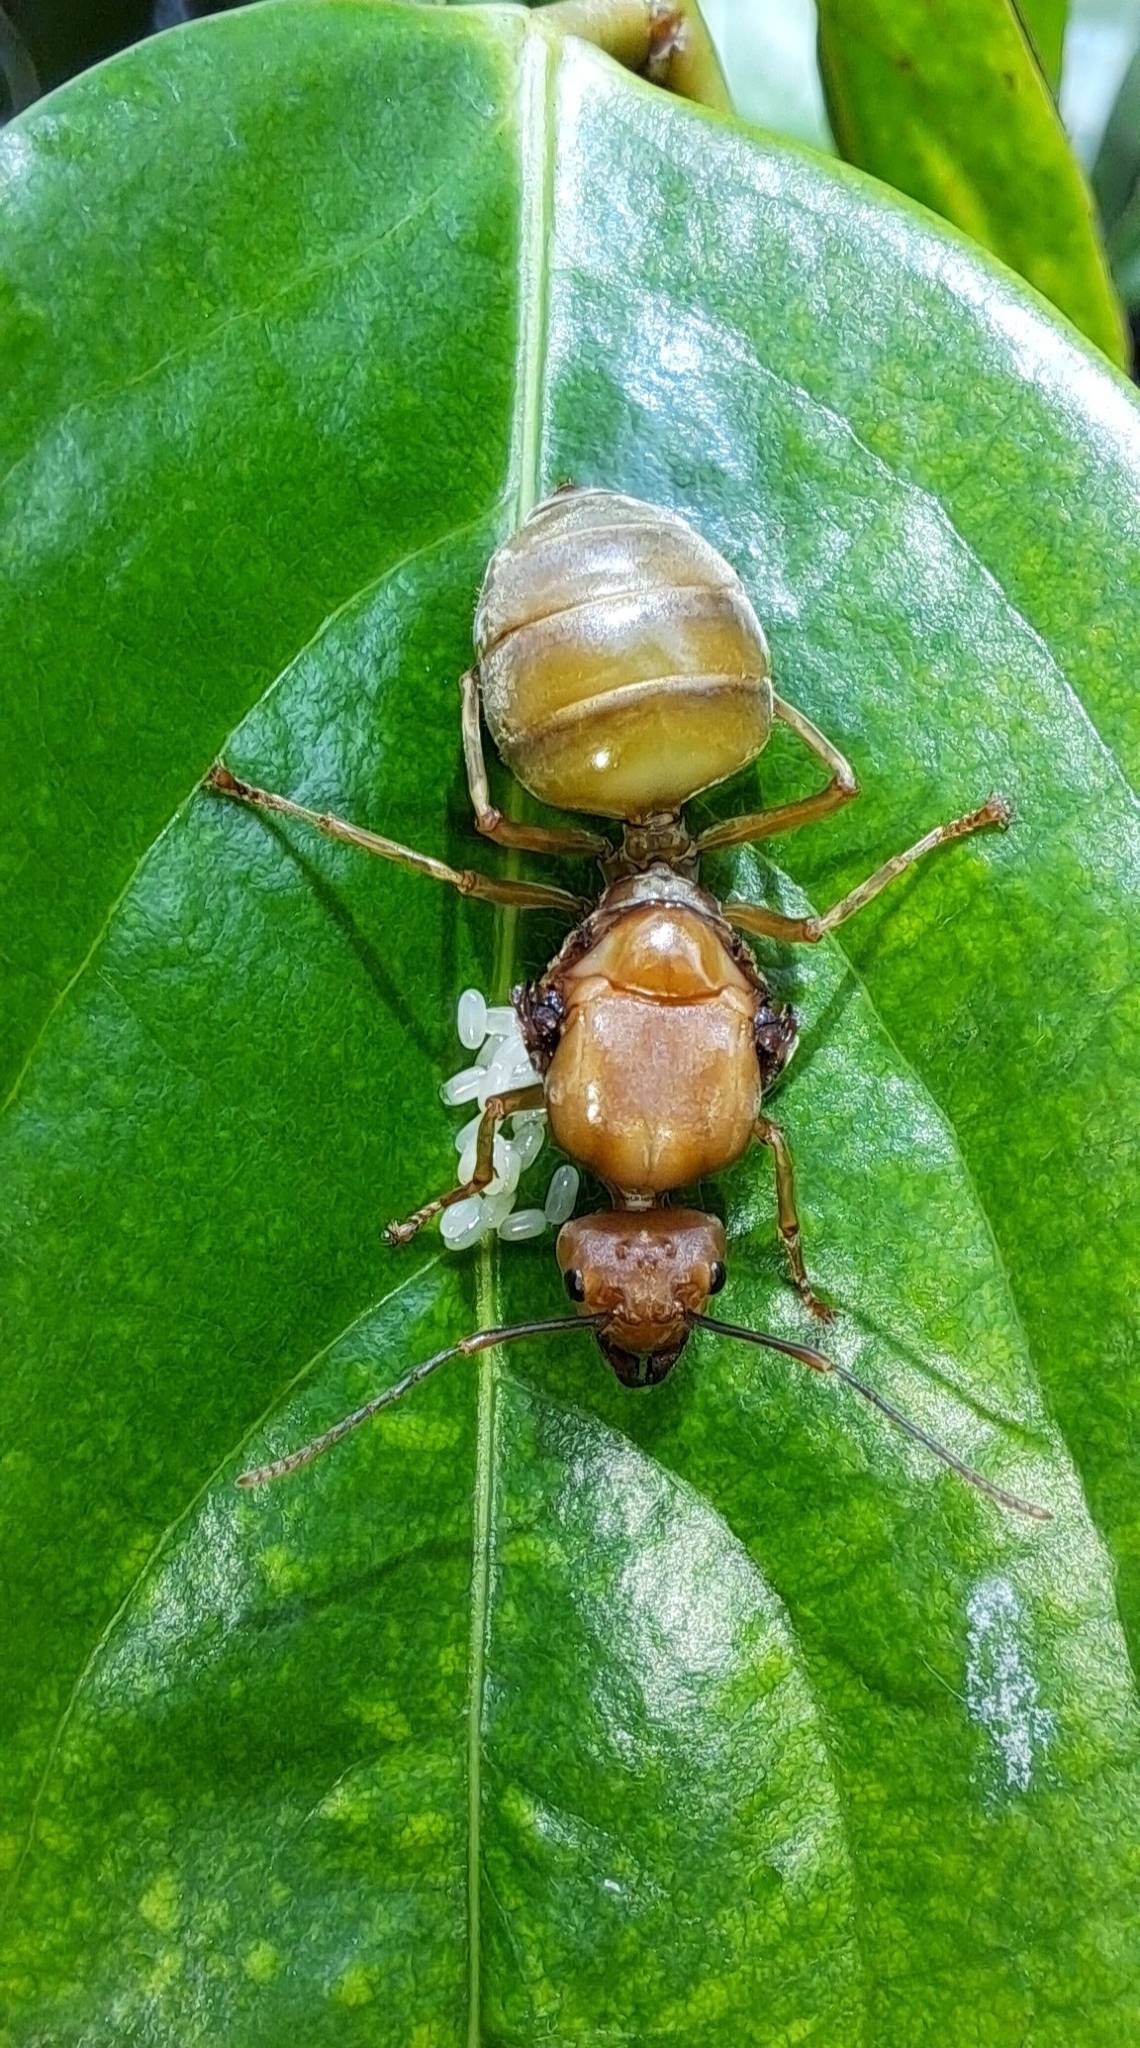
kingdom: Animalia
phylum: Arthropoda
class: Insecta
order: Hymenoptera
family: Formicidae
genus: Oecophylla
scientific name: Oecophylla smaragdina
